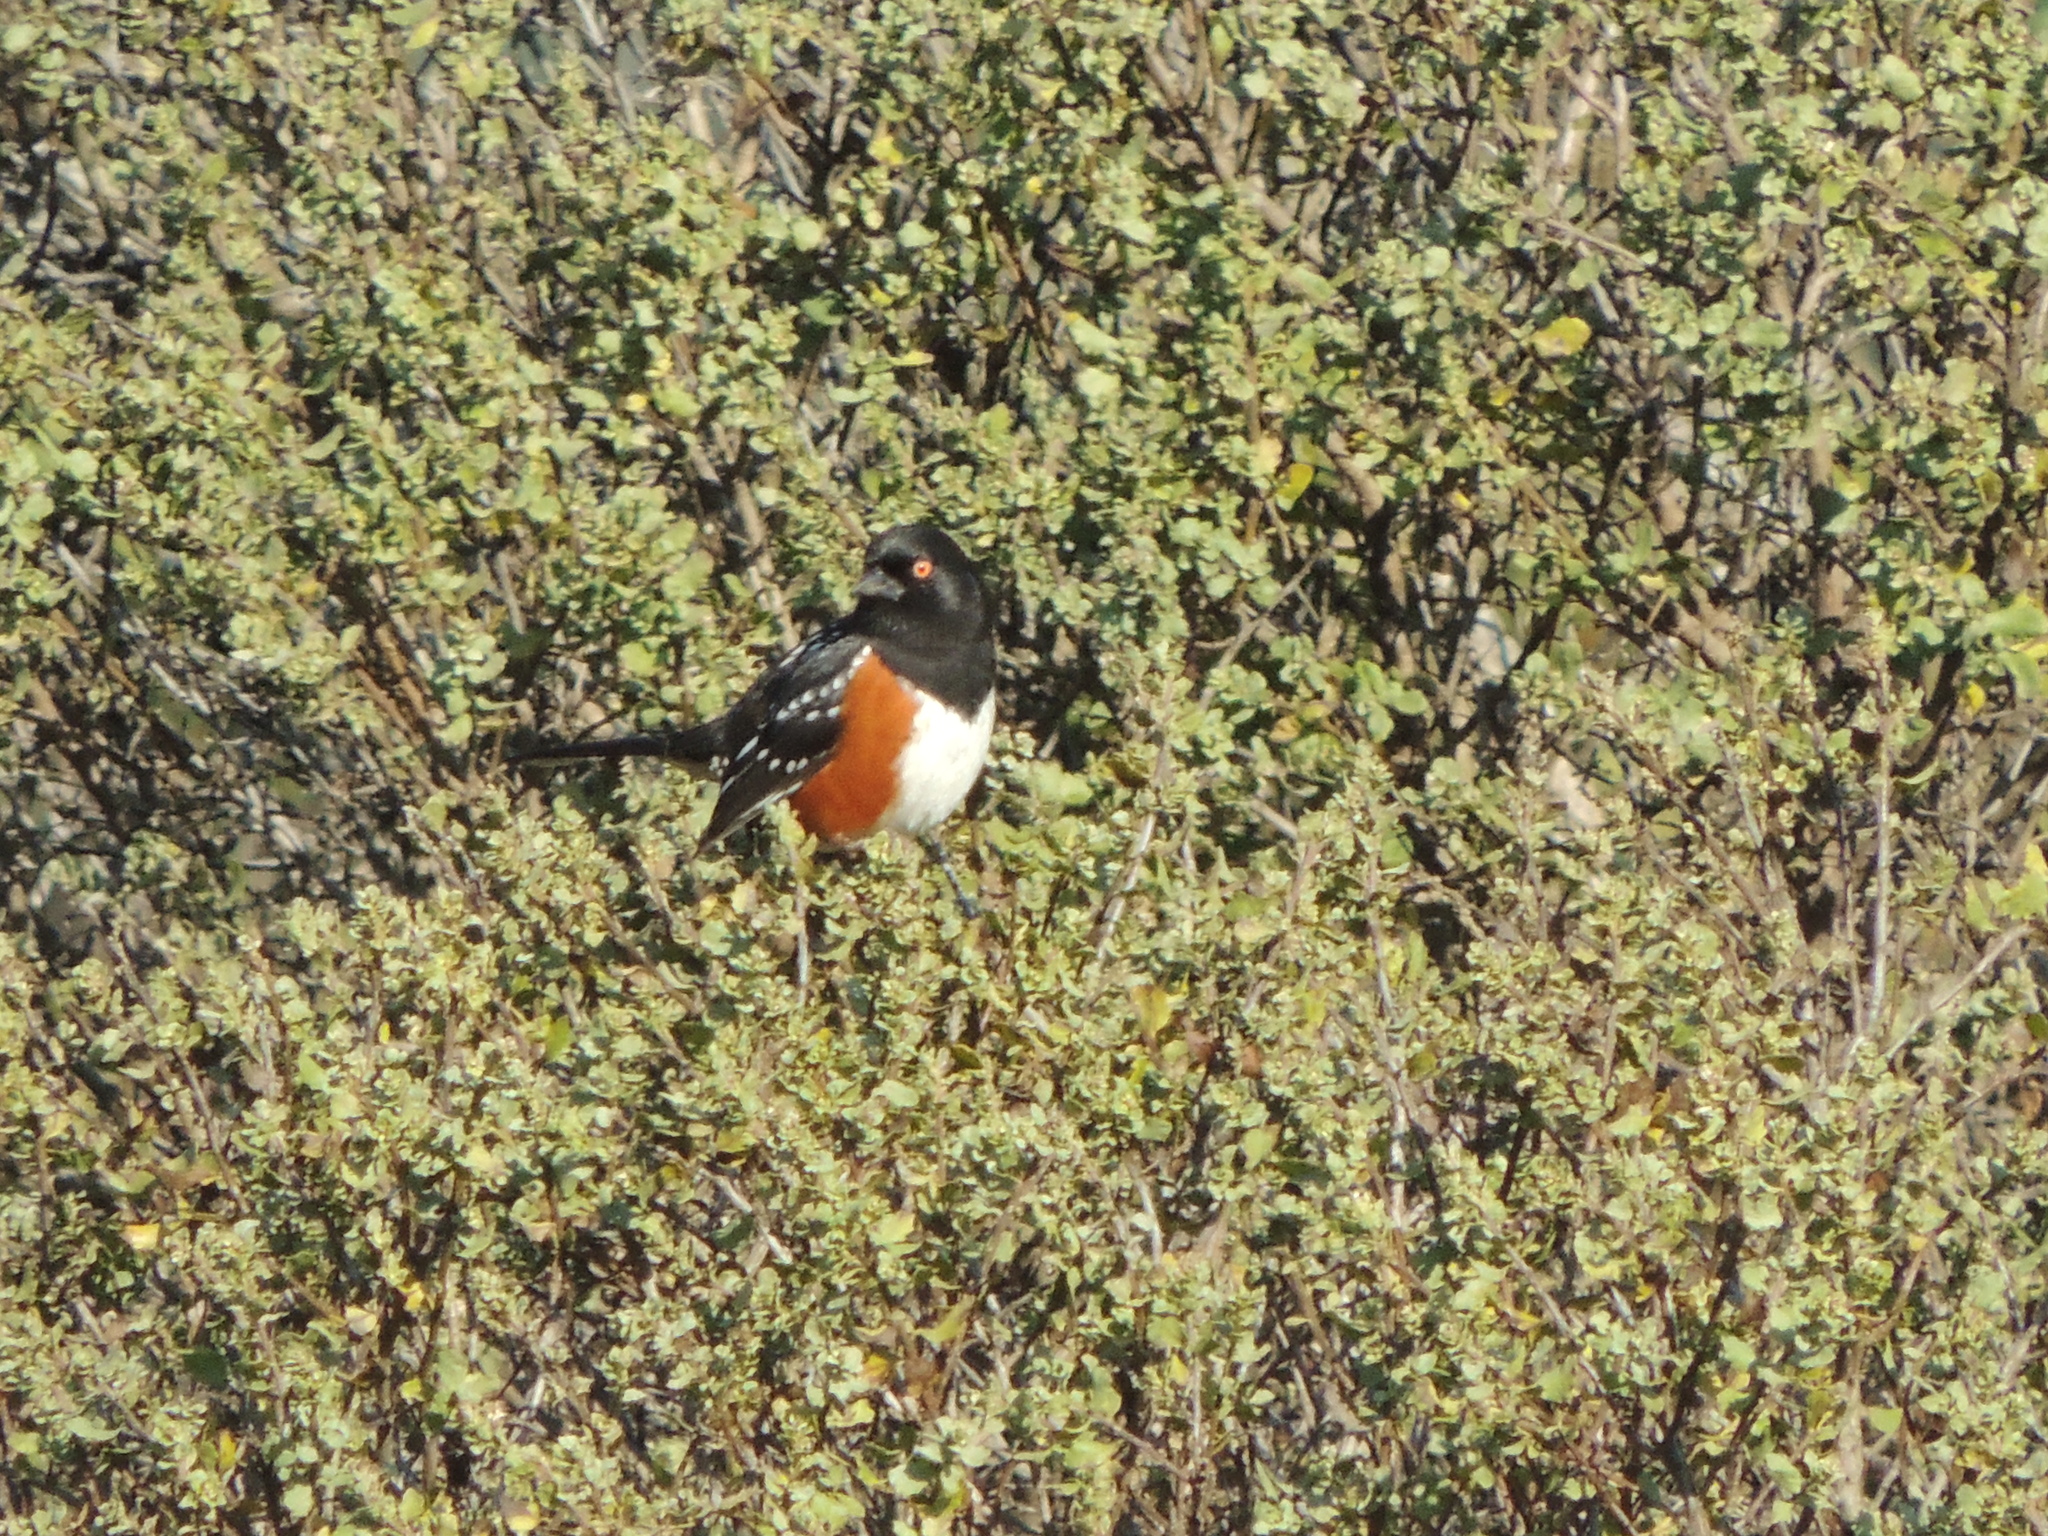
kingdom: Animalia
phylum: Chordata
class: Aves
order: Passeriformes
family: Passerellidae
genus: Pipilo
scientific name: Pipilo maculatus
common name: Spotted towhee
